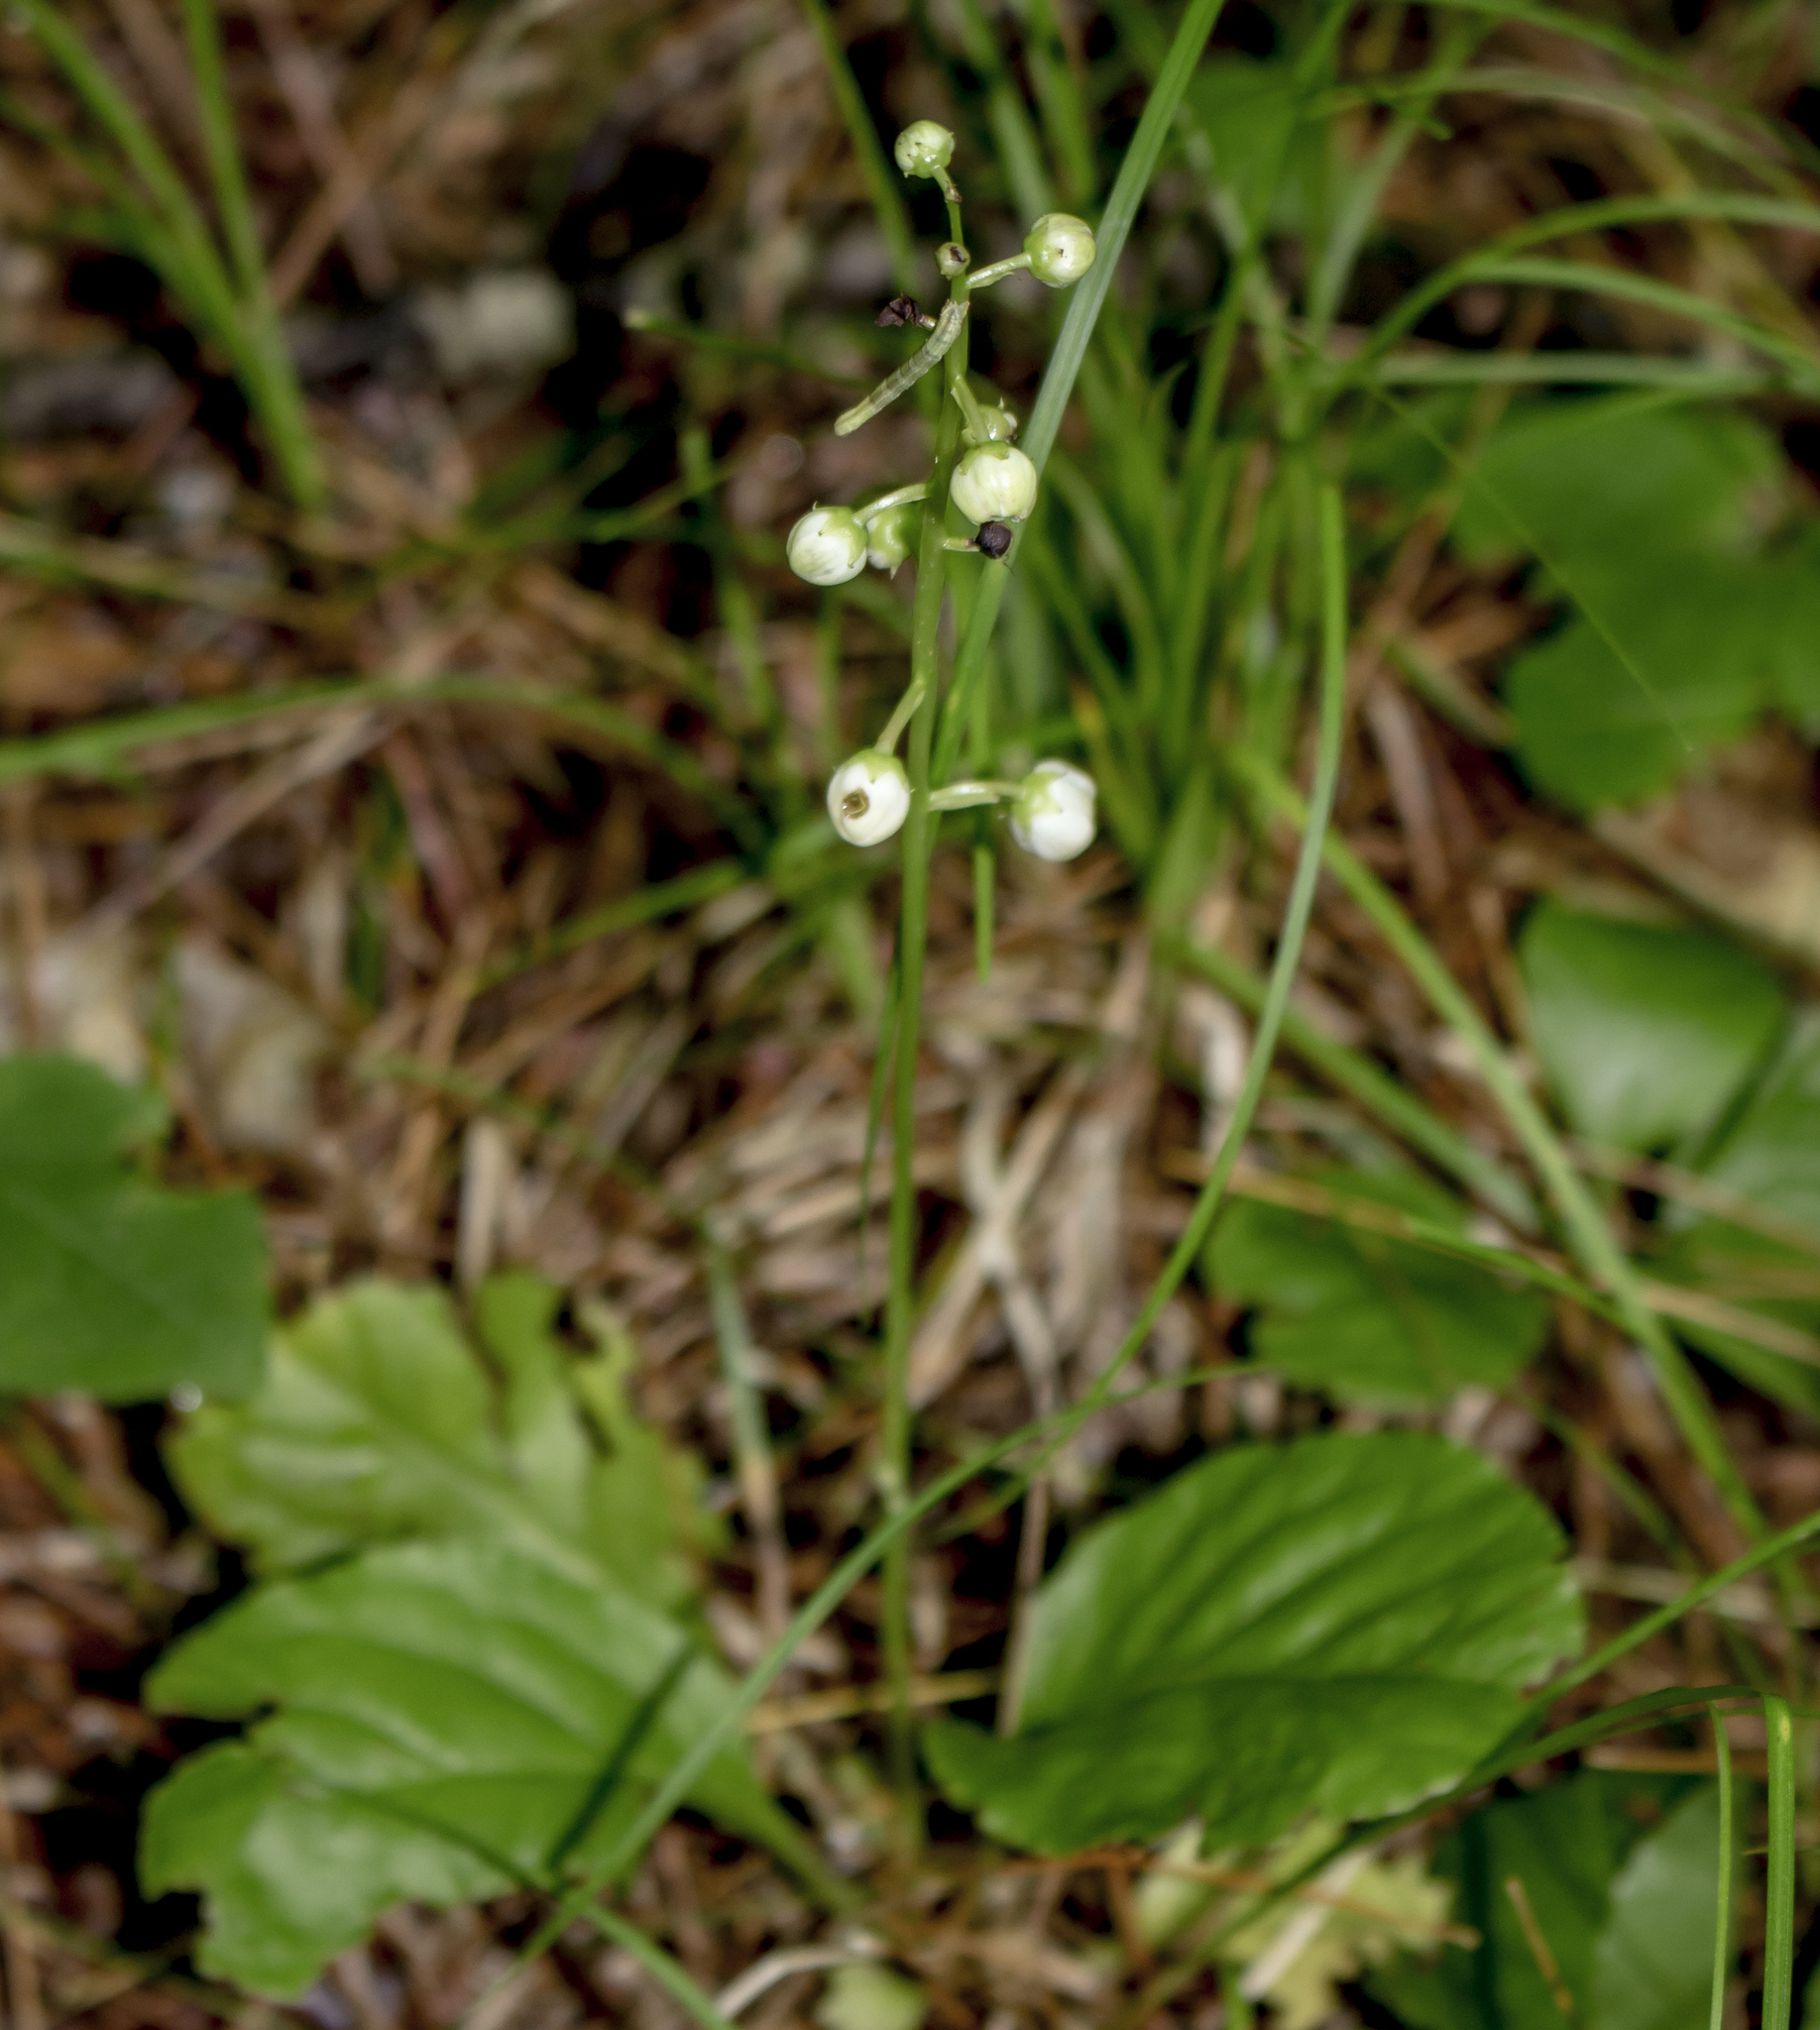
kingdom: Plantae
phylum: Tracheophyta
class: Magnoliopsida
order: Ericales
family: Ericaceae
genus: Pyrola
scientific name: Pyrola elliptica
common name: Shinleaf
